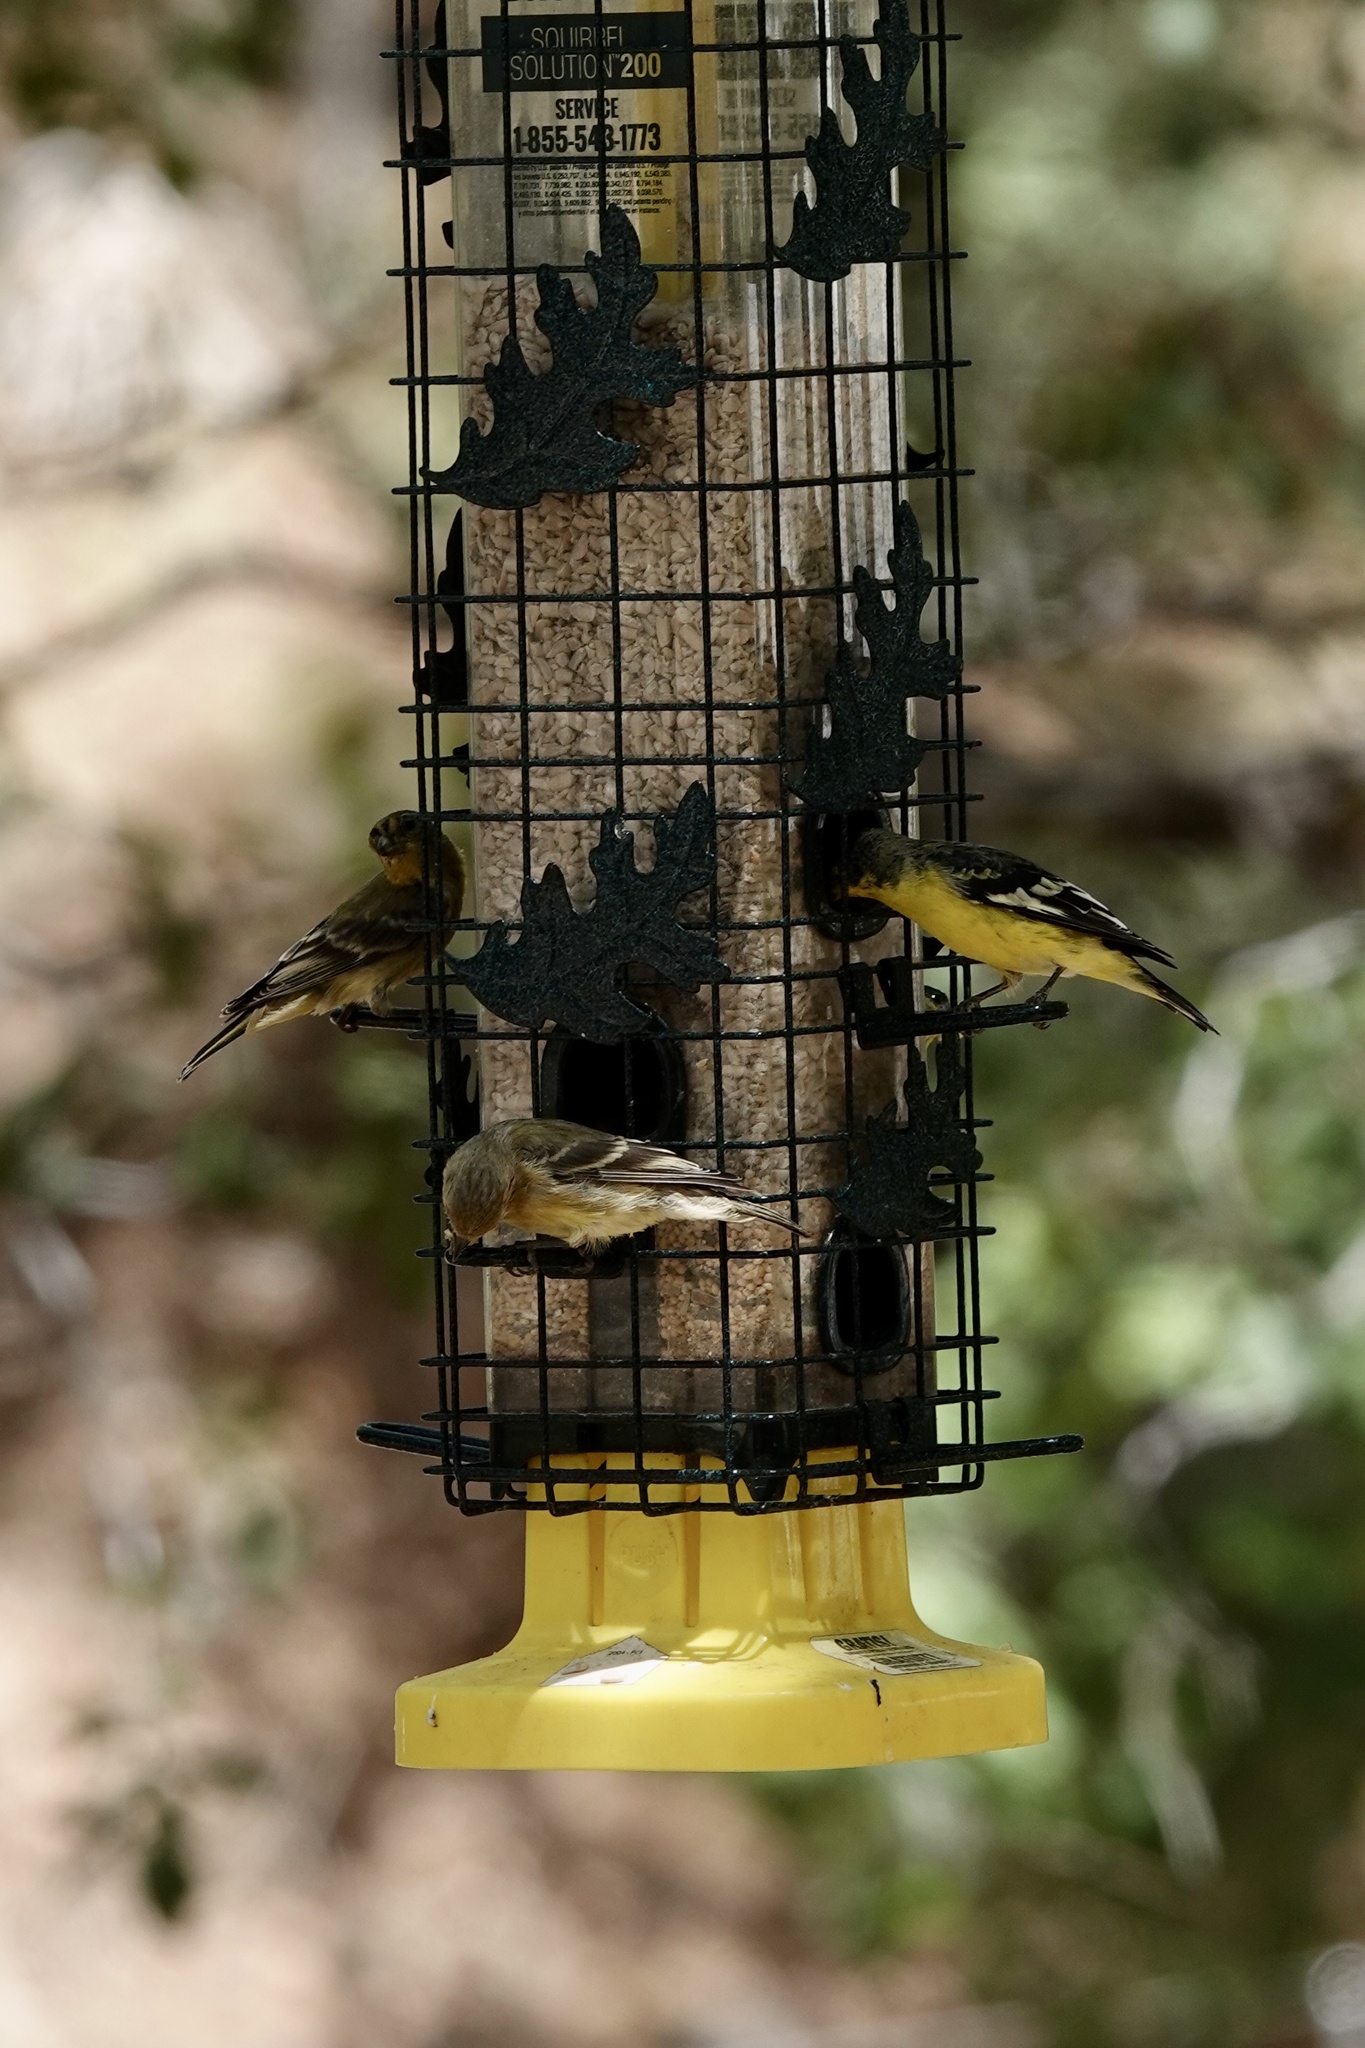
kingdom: Animalia
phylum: Chordata
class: Aves
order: Passeriformes
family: Fringillidae
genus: Spinus
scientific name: Spinus psaltria
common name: Lesser goldfinch
